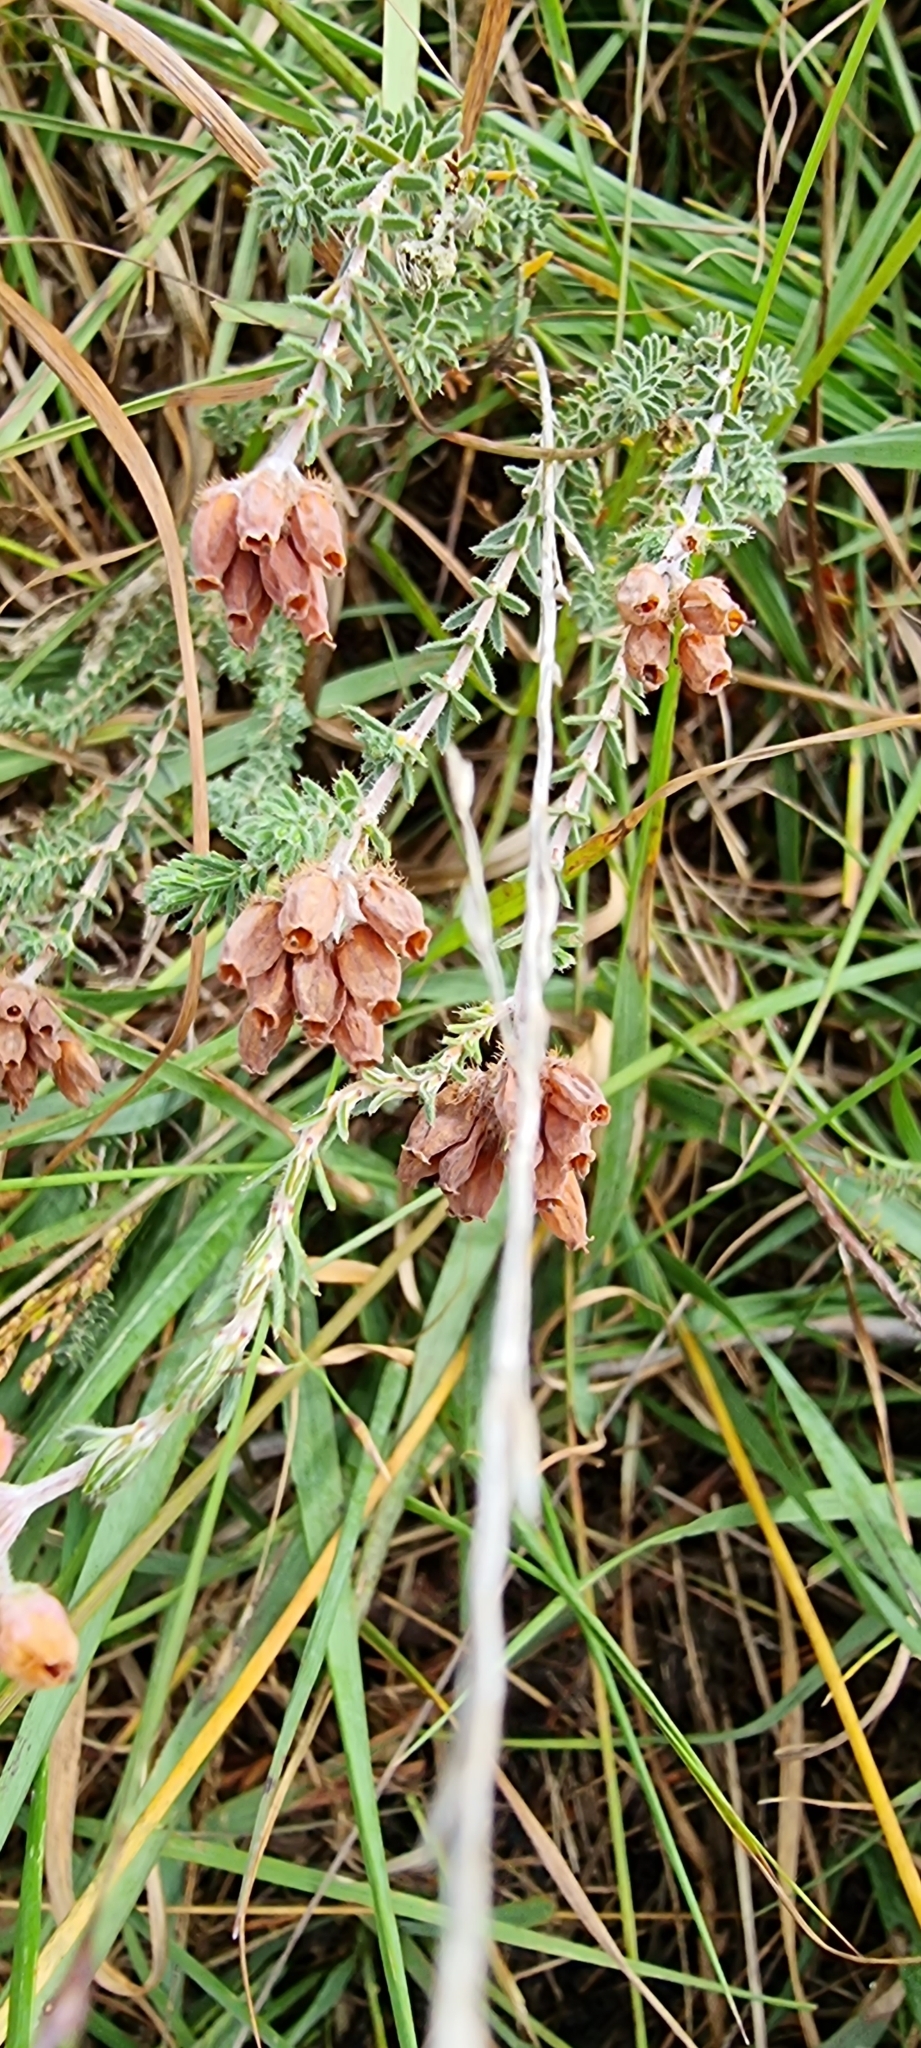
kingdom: Plantae
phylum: Tracheophyta
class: Magnoliopsida
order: Ericales
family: Ericaceae
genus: Erica
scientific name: Erica tetralix
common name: Cross-leaved heath
